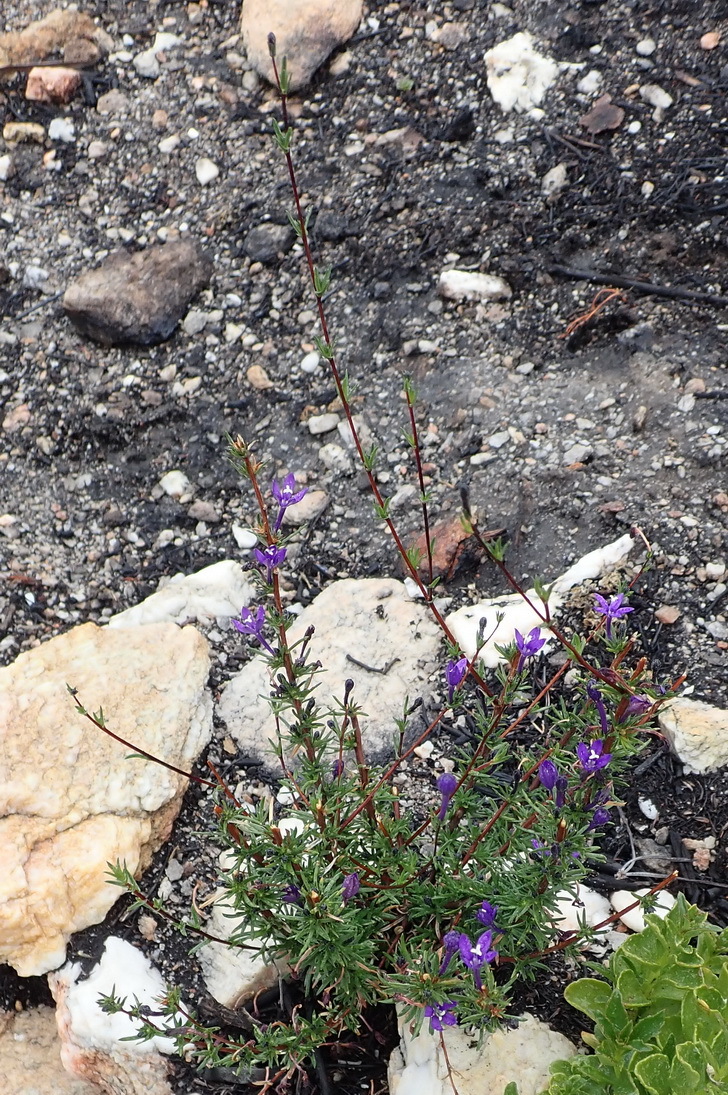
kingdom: Plantae
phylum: Tracheophyta
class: Magnoliopsida
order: Asterales
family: Campanulaceae
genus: Theilera
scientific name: Theilera guthriei
